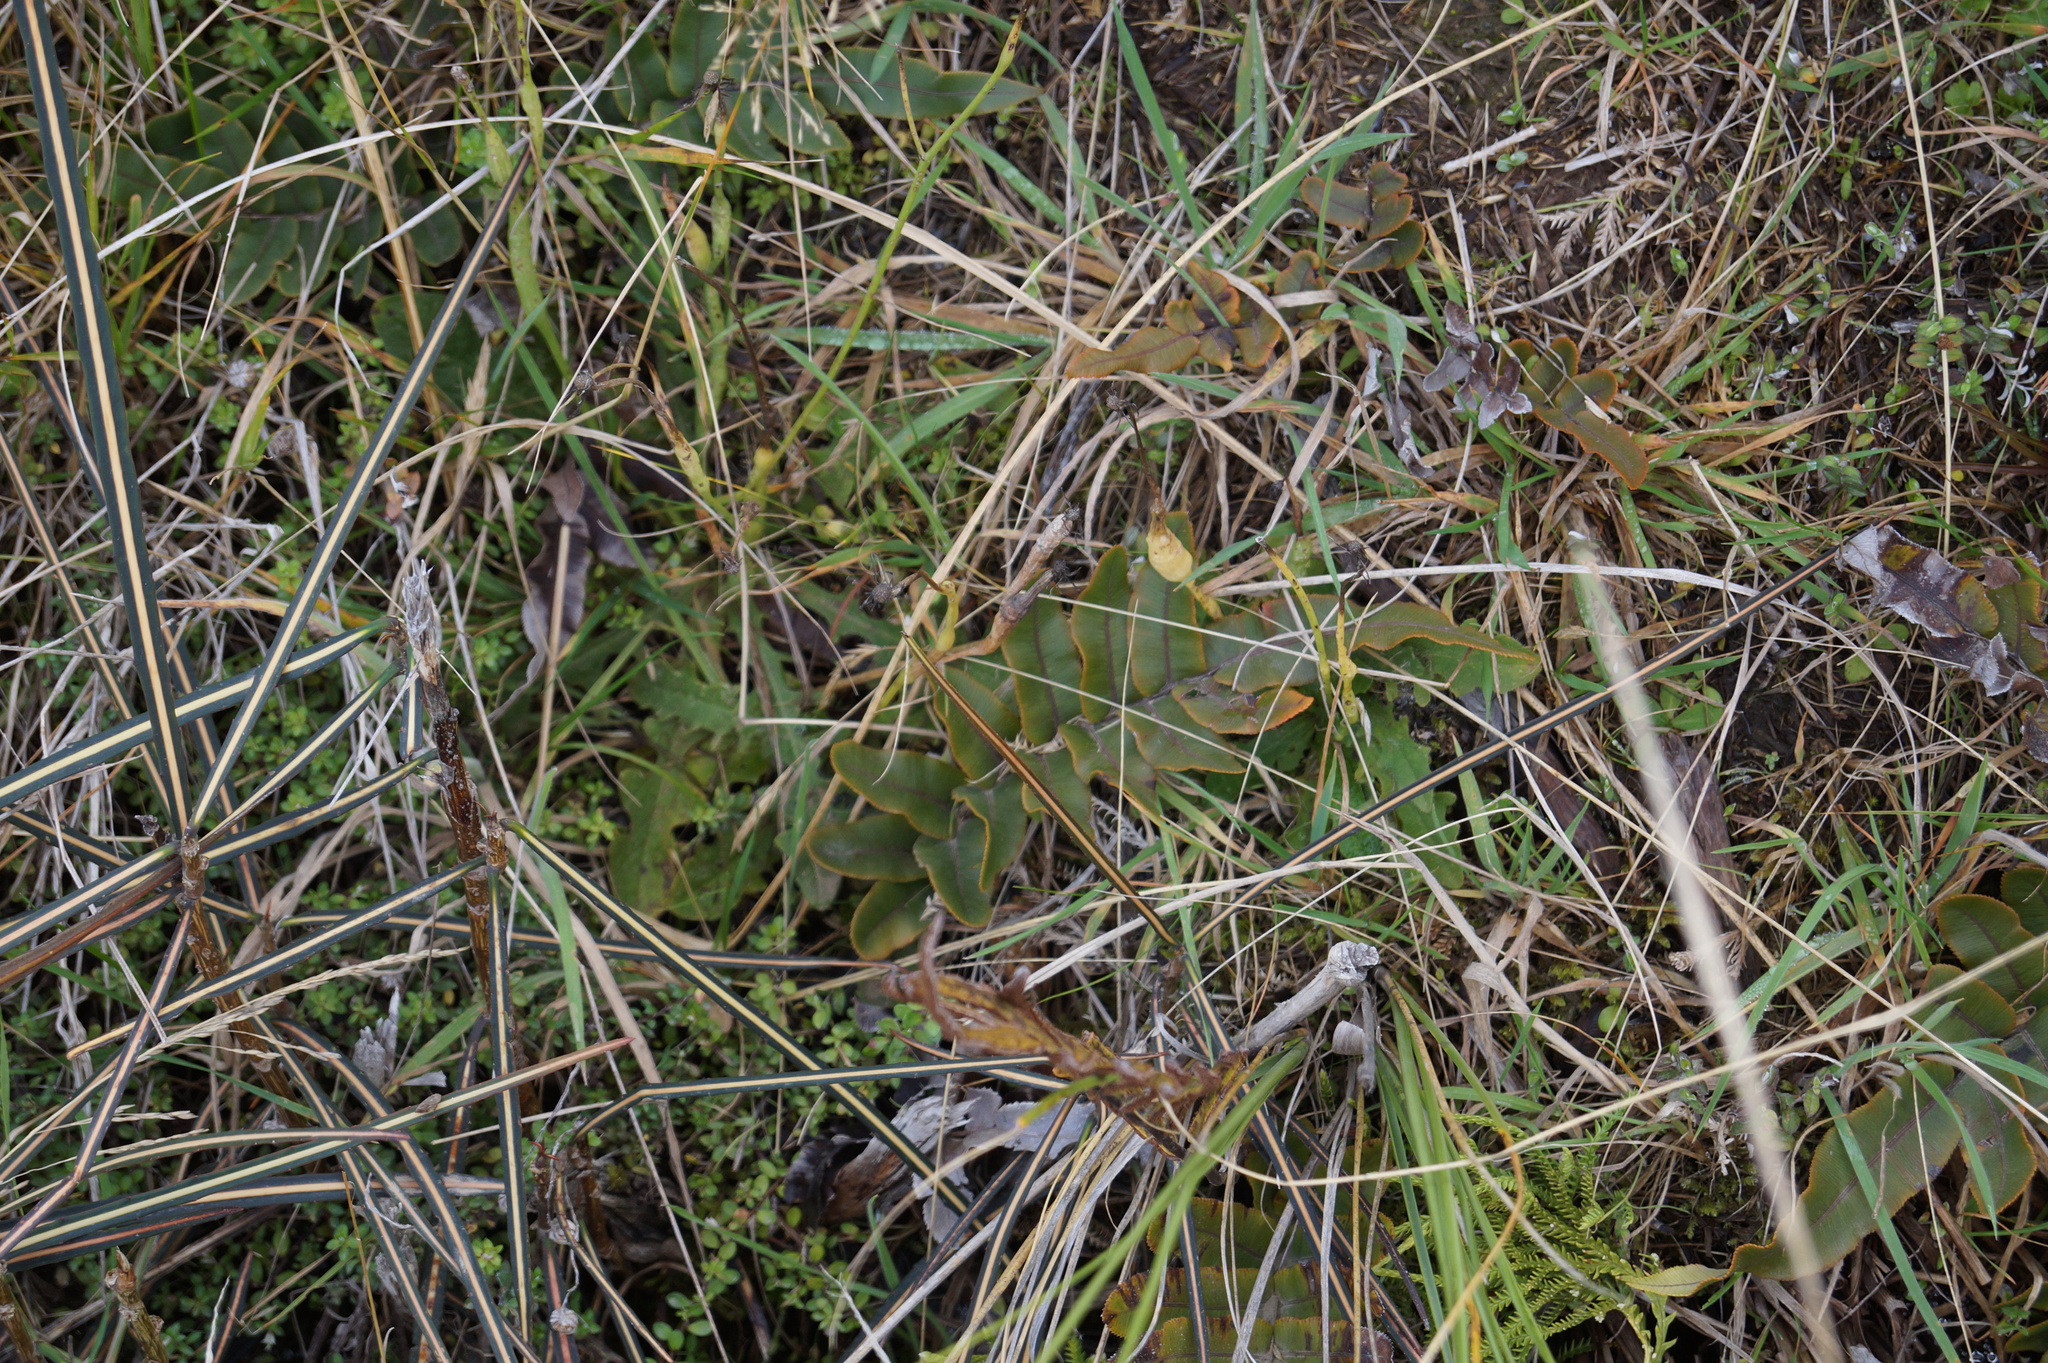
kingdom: Plantae
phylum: Tracheophyta
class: Polypodiopsida
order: Polypodiales
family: Blechnaceae
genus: Parablechnum
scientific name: Parablechnum procerum
